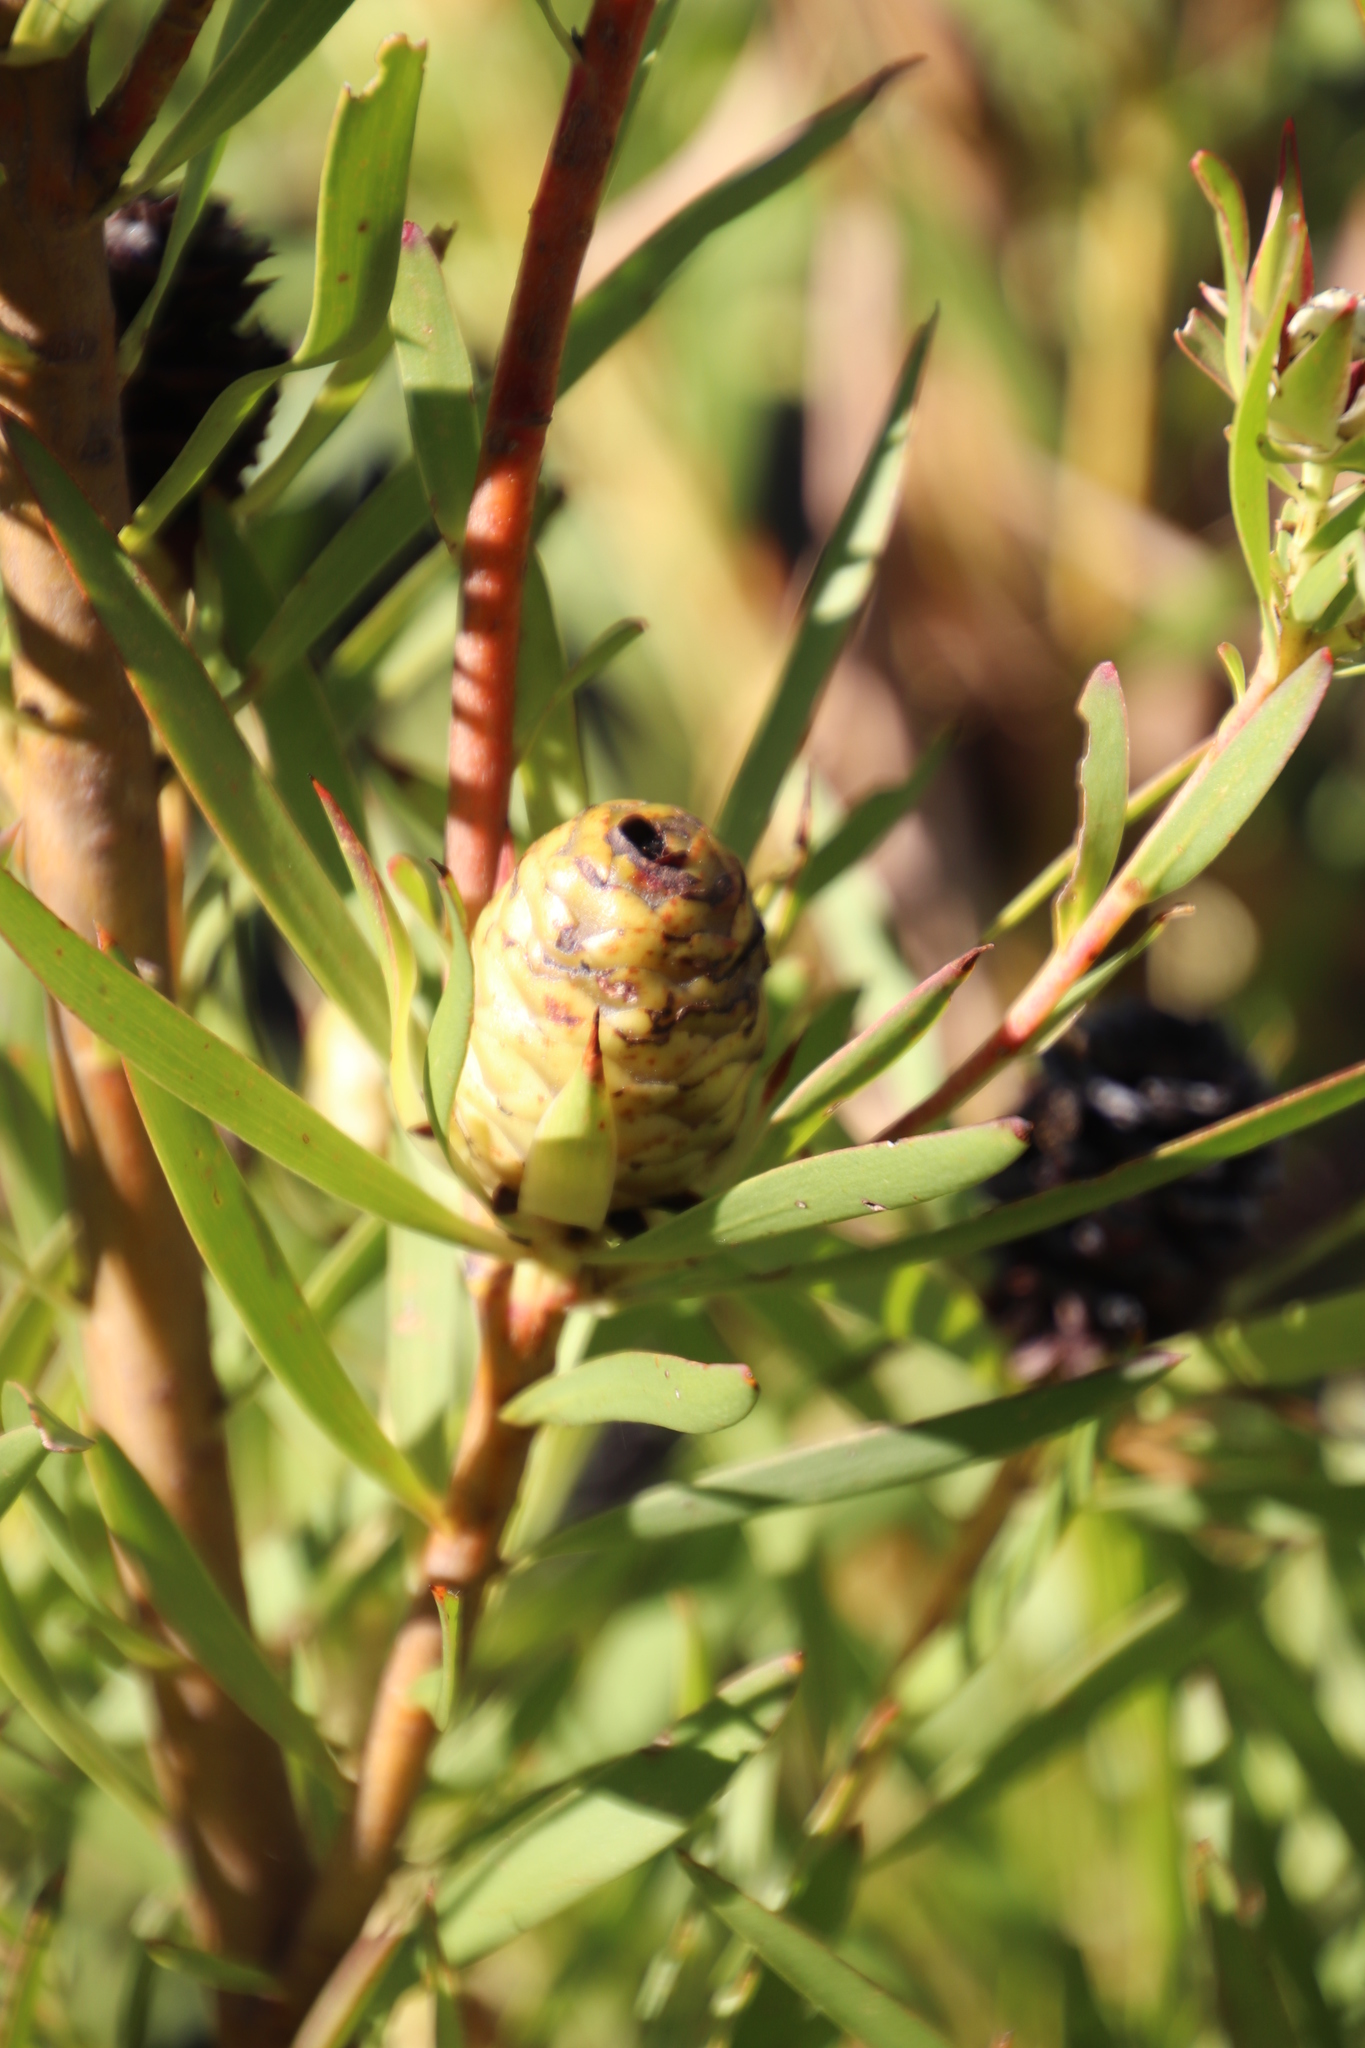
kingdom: Plantae
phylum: Tracheophyta
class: Magnoliopsida
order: Proteales
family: Proteaceae
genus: Leucadendron
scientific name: Leucadendron xanthoconus
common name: Sickle-leaf conebush
